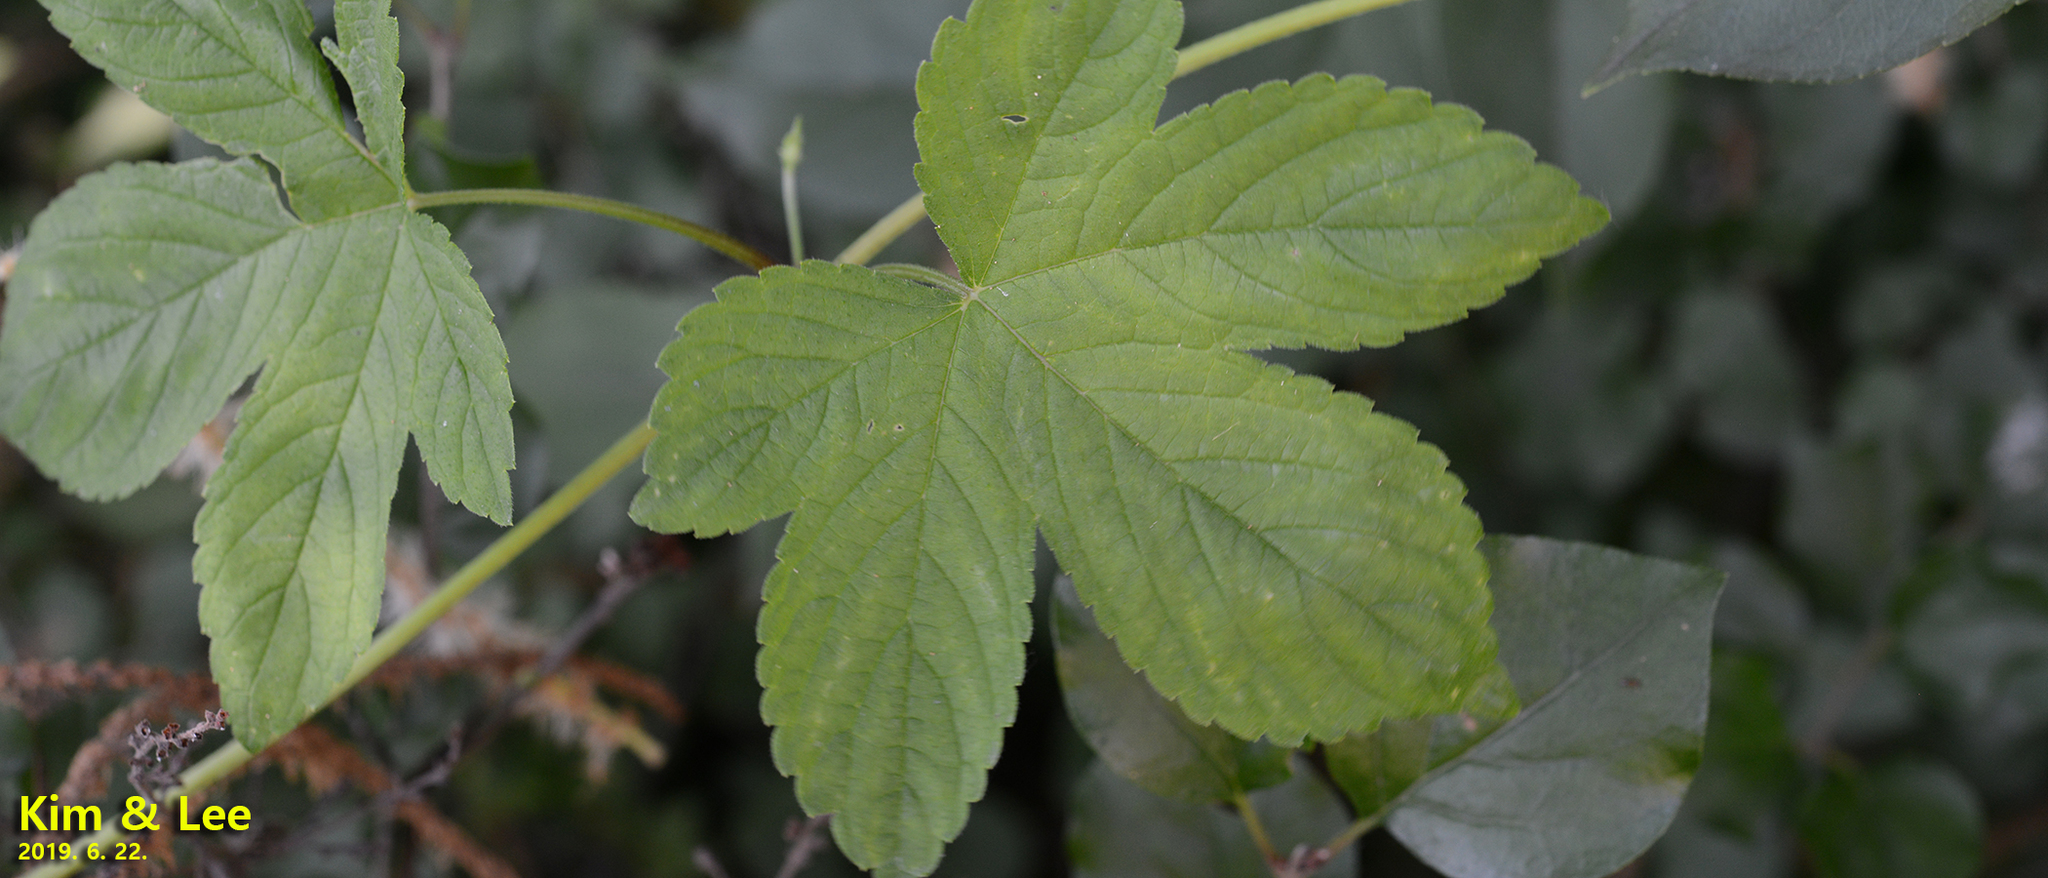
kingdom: Plantae
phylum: Tracheophyta
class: Magnoliopsida
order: Rosales
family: Cannabaceae
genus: Humulus
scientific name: Humulus scandens
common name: Japanese hop
